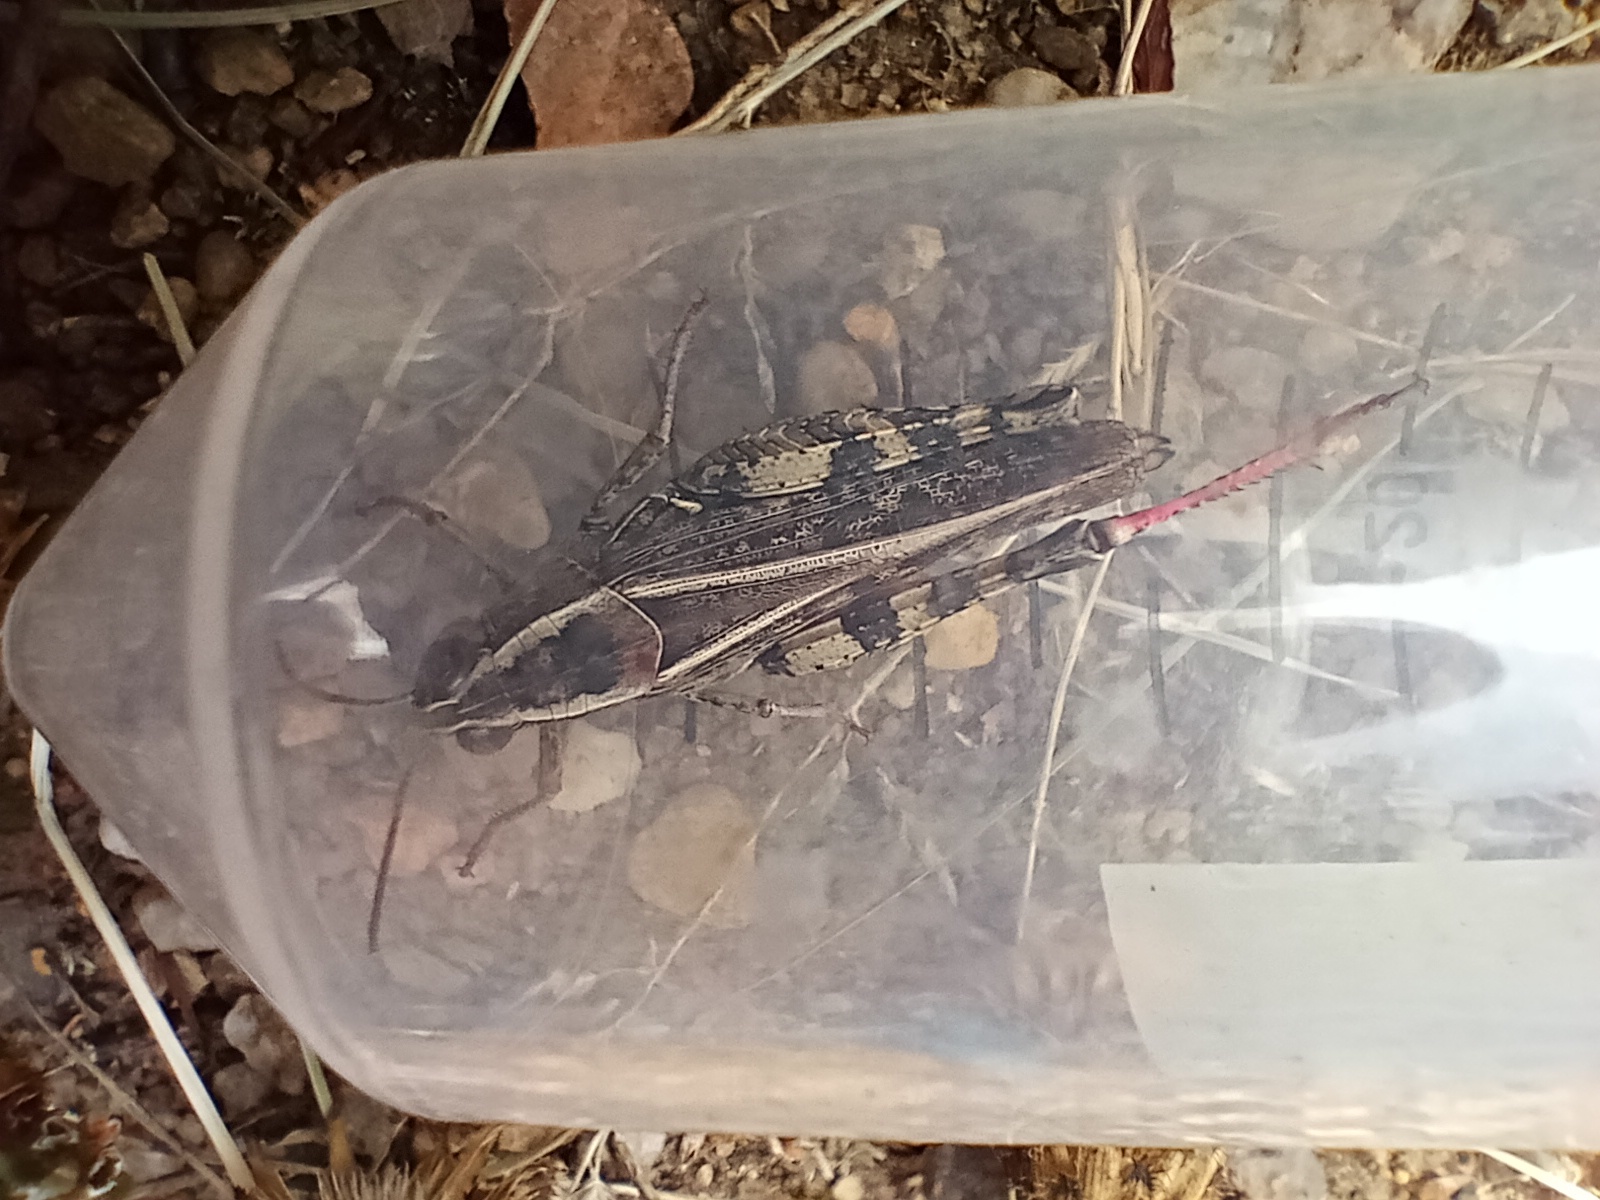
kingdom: Animalia
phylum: Arthropoda
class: Insecta
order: Orthoptera
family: Acrididae
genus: Calliptamus
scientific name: Calliptamus italicus
